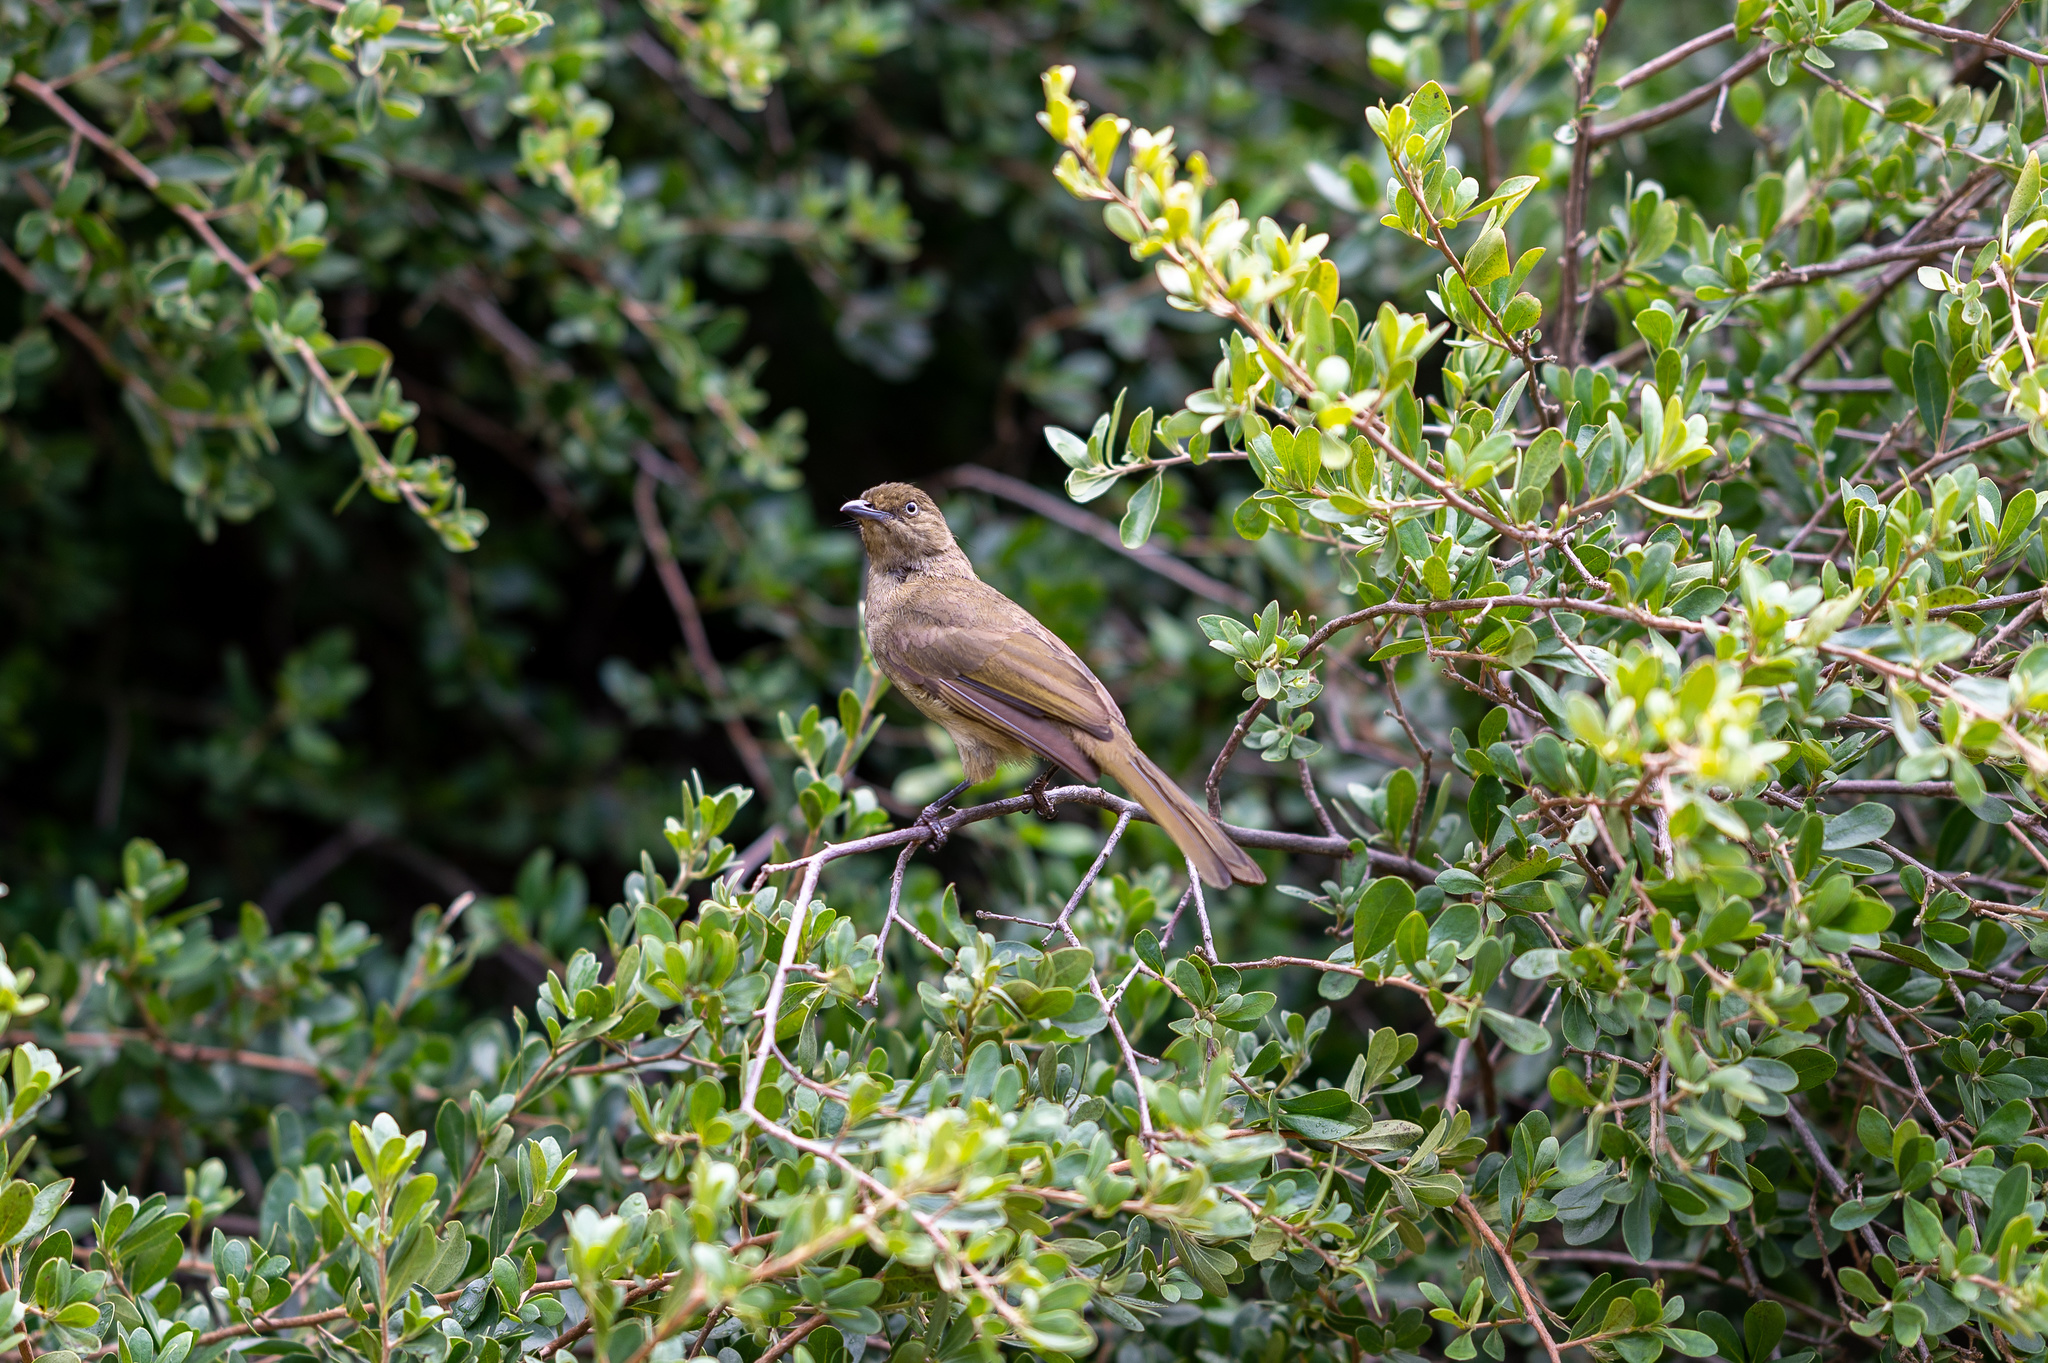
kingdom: Animalia
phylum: Chordata
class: Aves
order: Passeriformes
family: Pycnonotidae
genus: Andropadus
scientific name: Andropadus importunus
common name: Sombre greenbul
